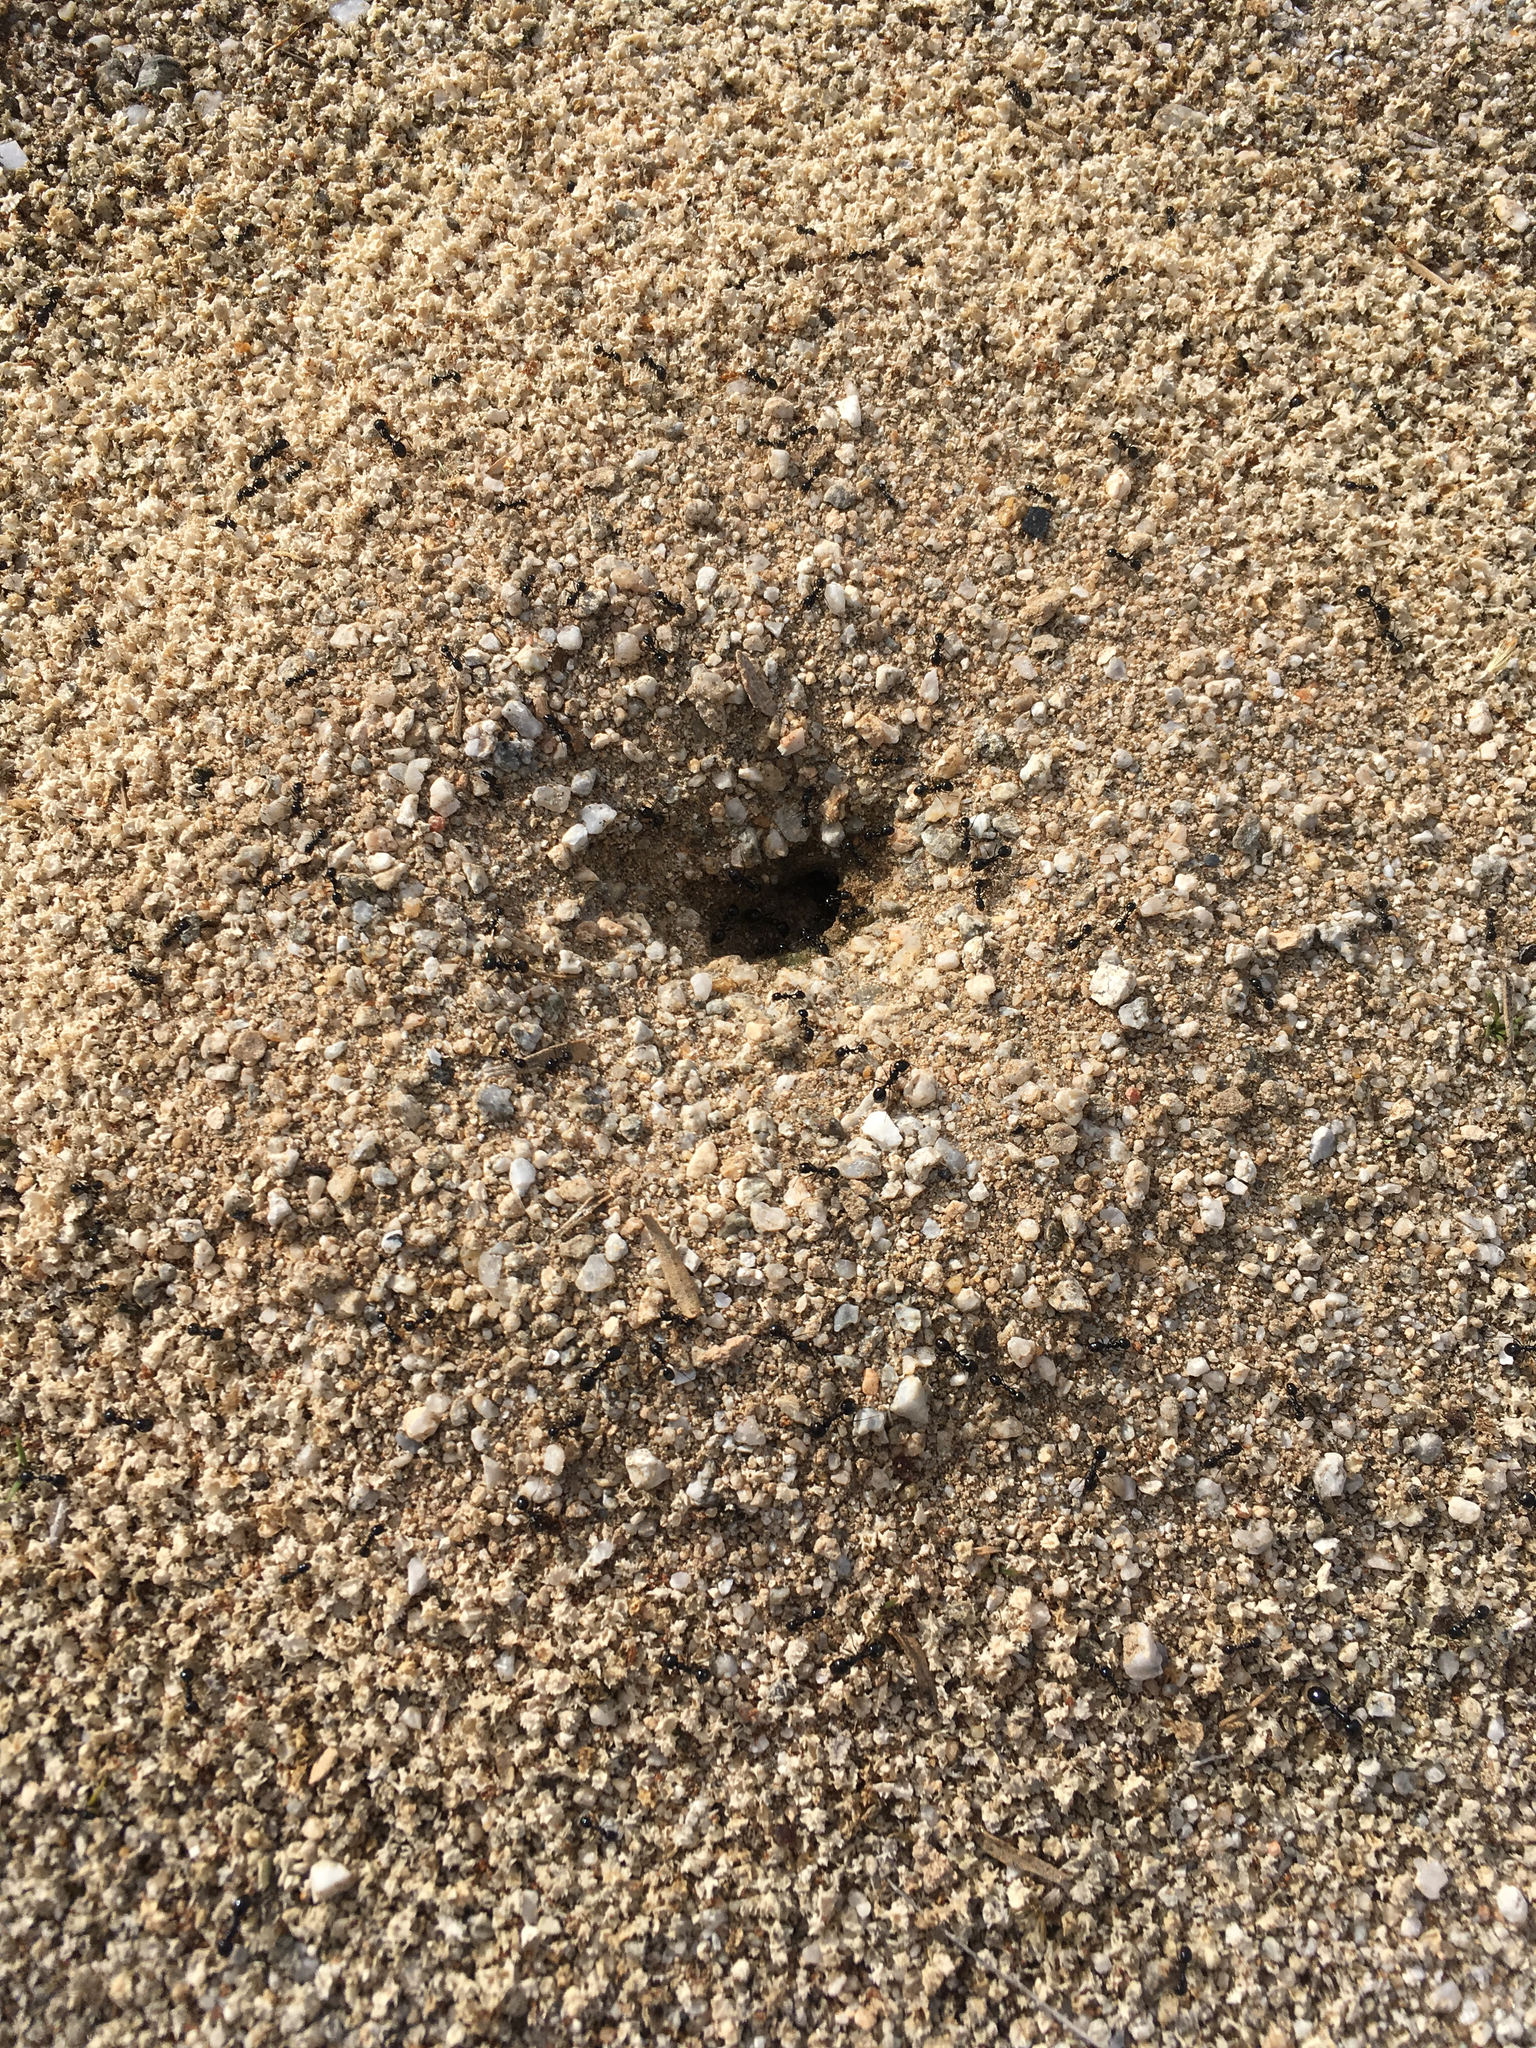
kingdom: Animalia
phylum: Arthropoda
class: Insecta
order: Hymenoptera
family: Formicidae
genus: Messor
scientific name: Messor pergandei
